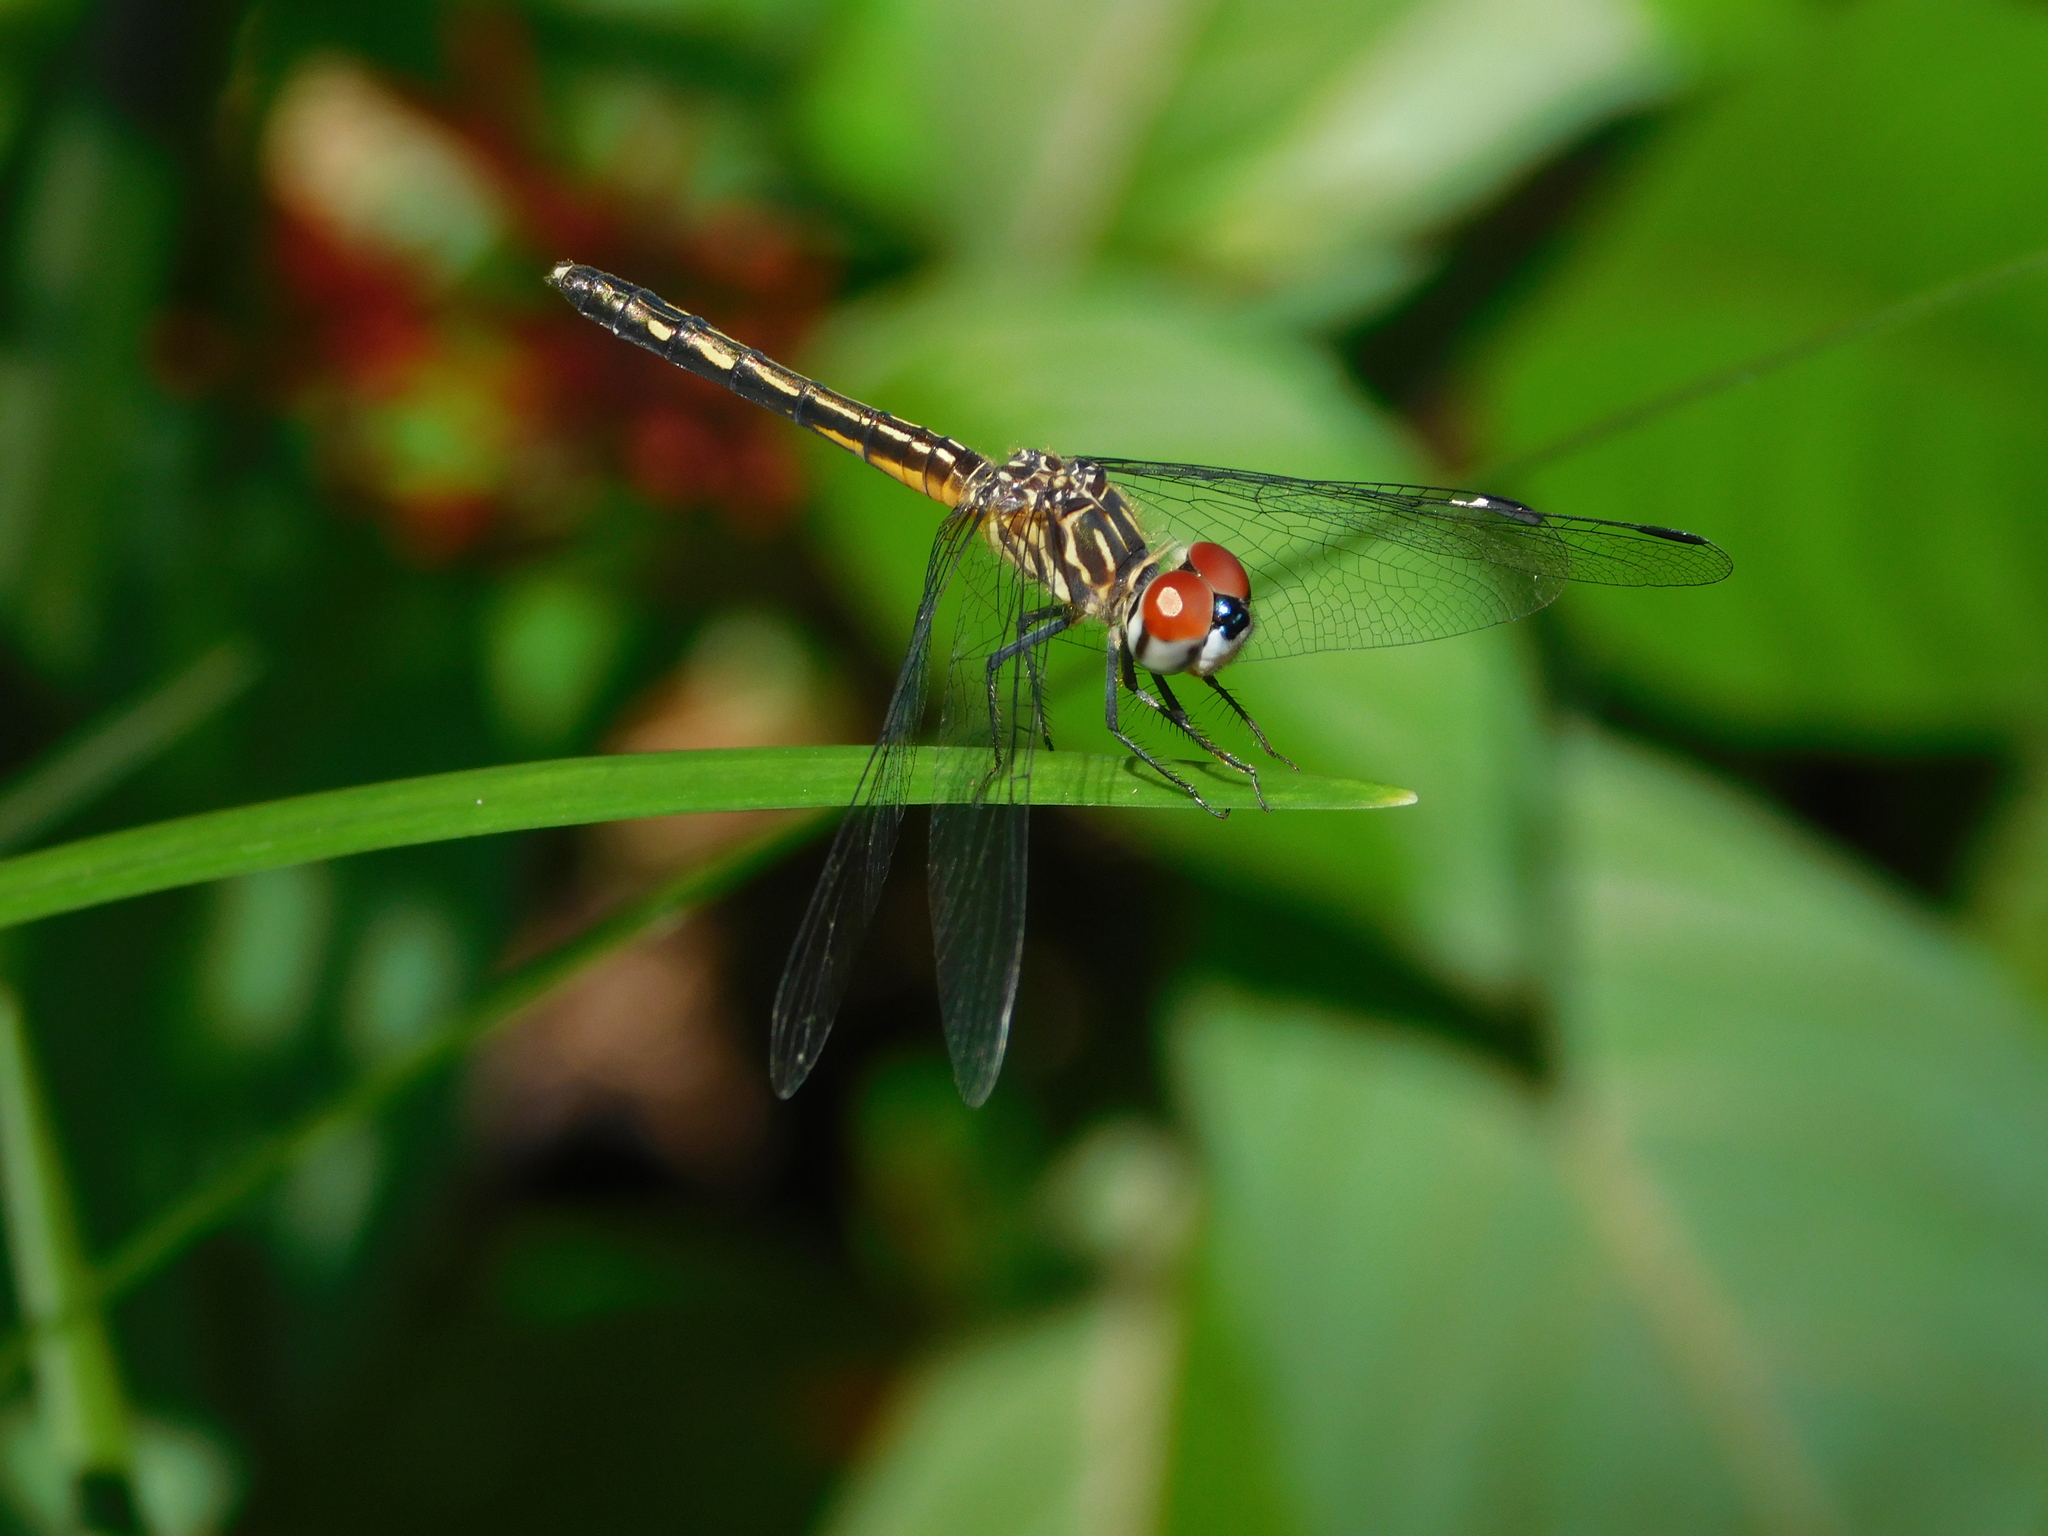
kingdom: Animalia
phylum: Arthropoda
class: Insecta
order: Odonata
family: Libellulidae
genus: Pachydiplax
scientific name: Pachydiplax longipennis
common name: Blue dasher
